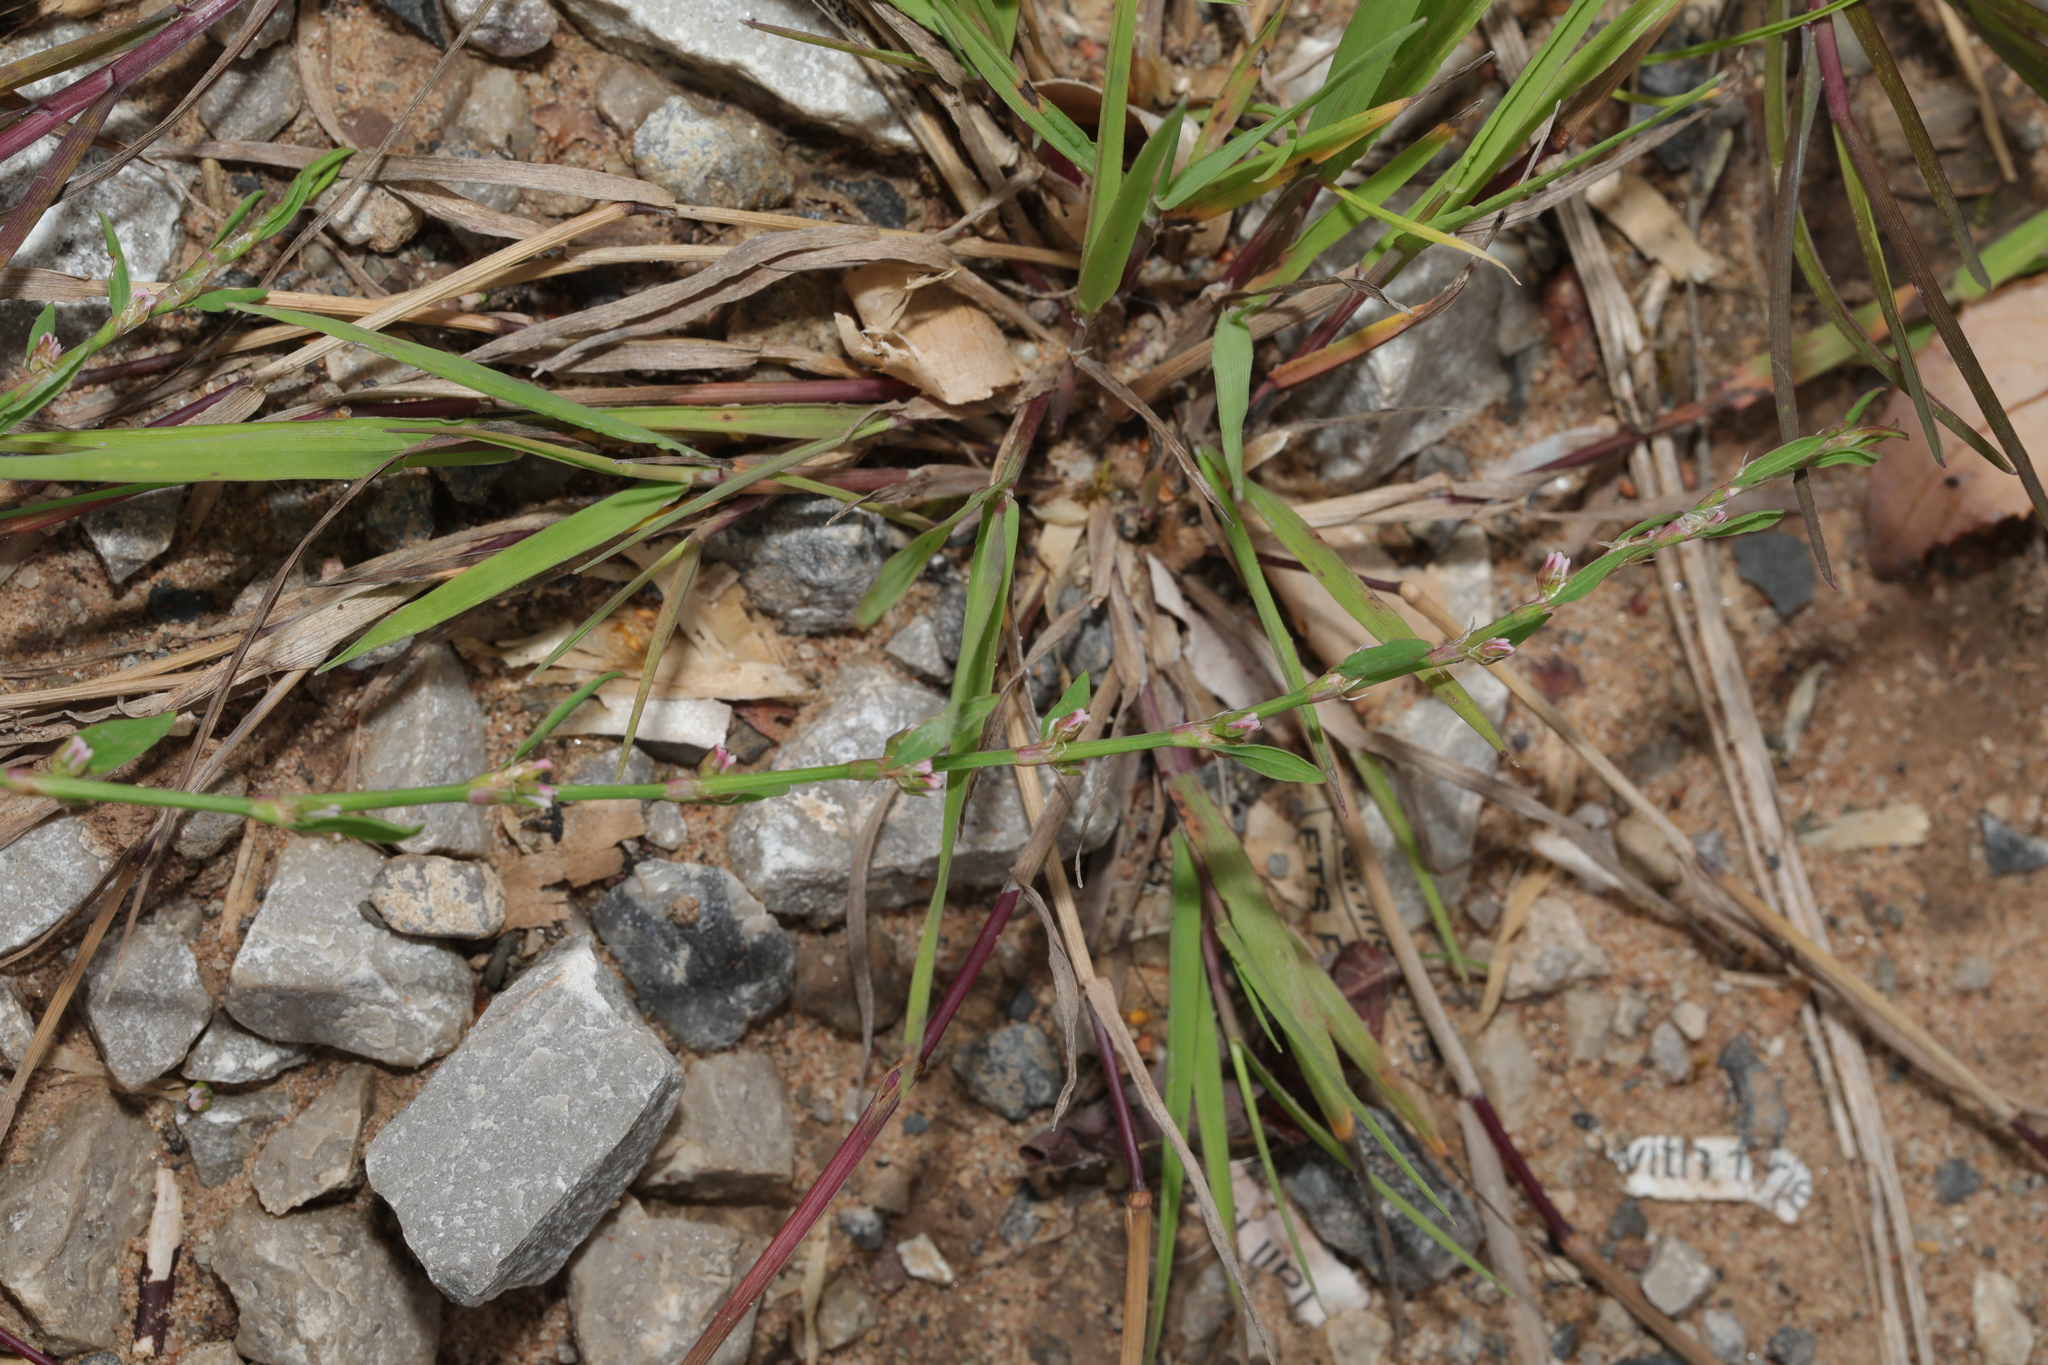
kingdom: Plantae
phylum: Tracheophyta
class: Magnoliopsida
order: Caryophyllales
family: Polygonaceae
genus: Polygonum
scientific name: Polygonum aviculare
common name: Prostrate knotweed
